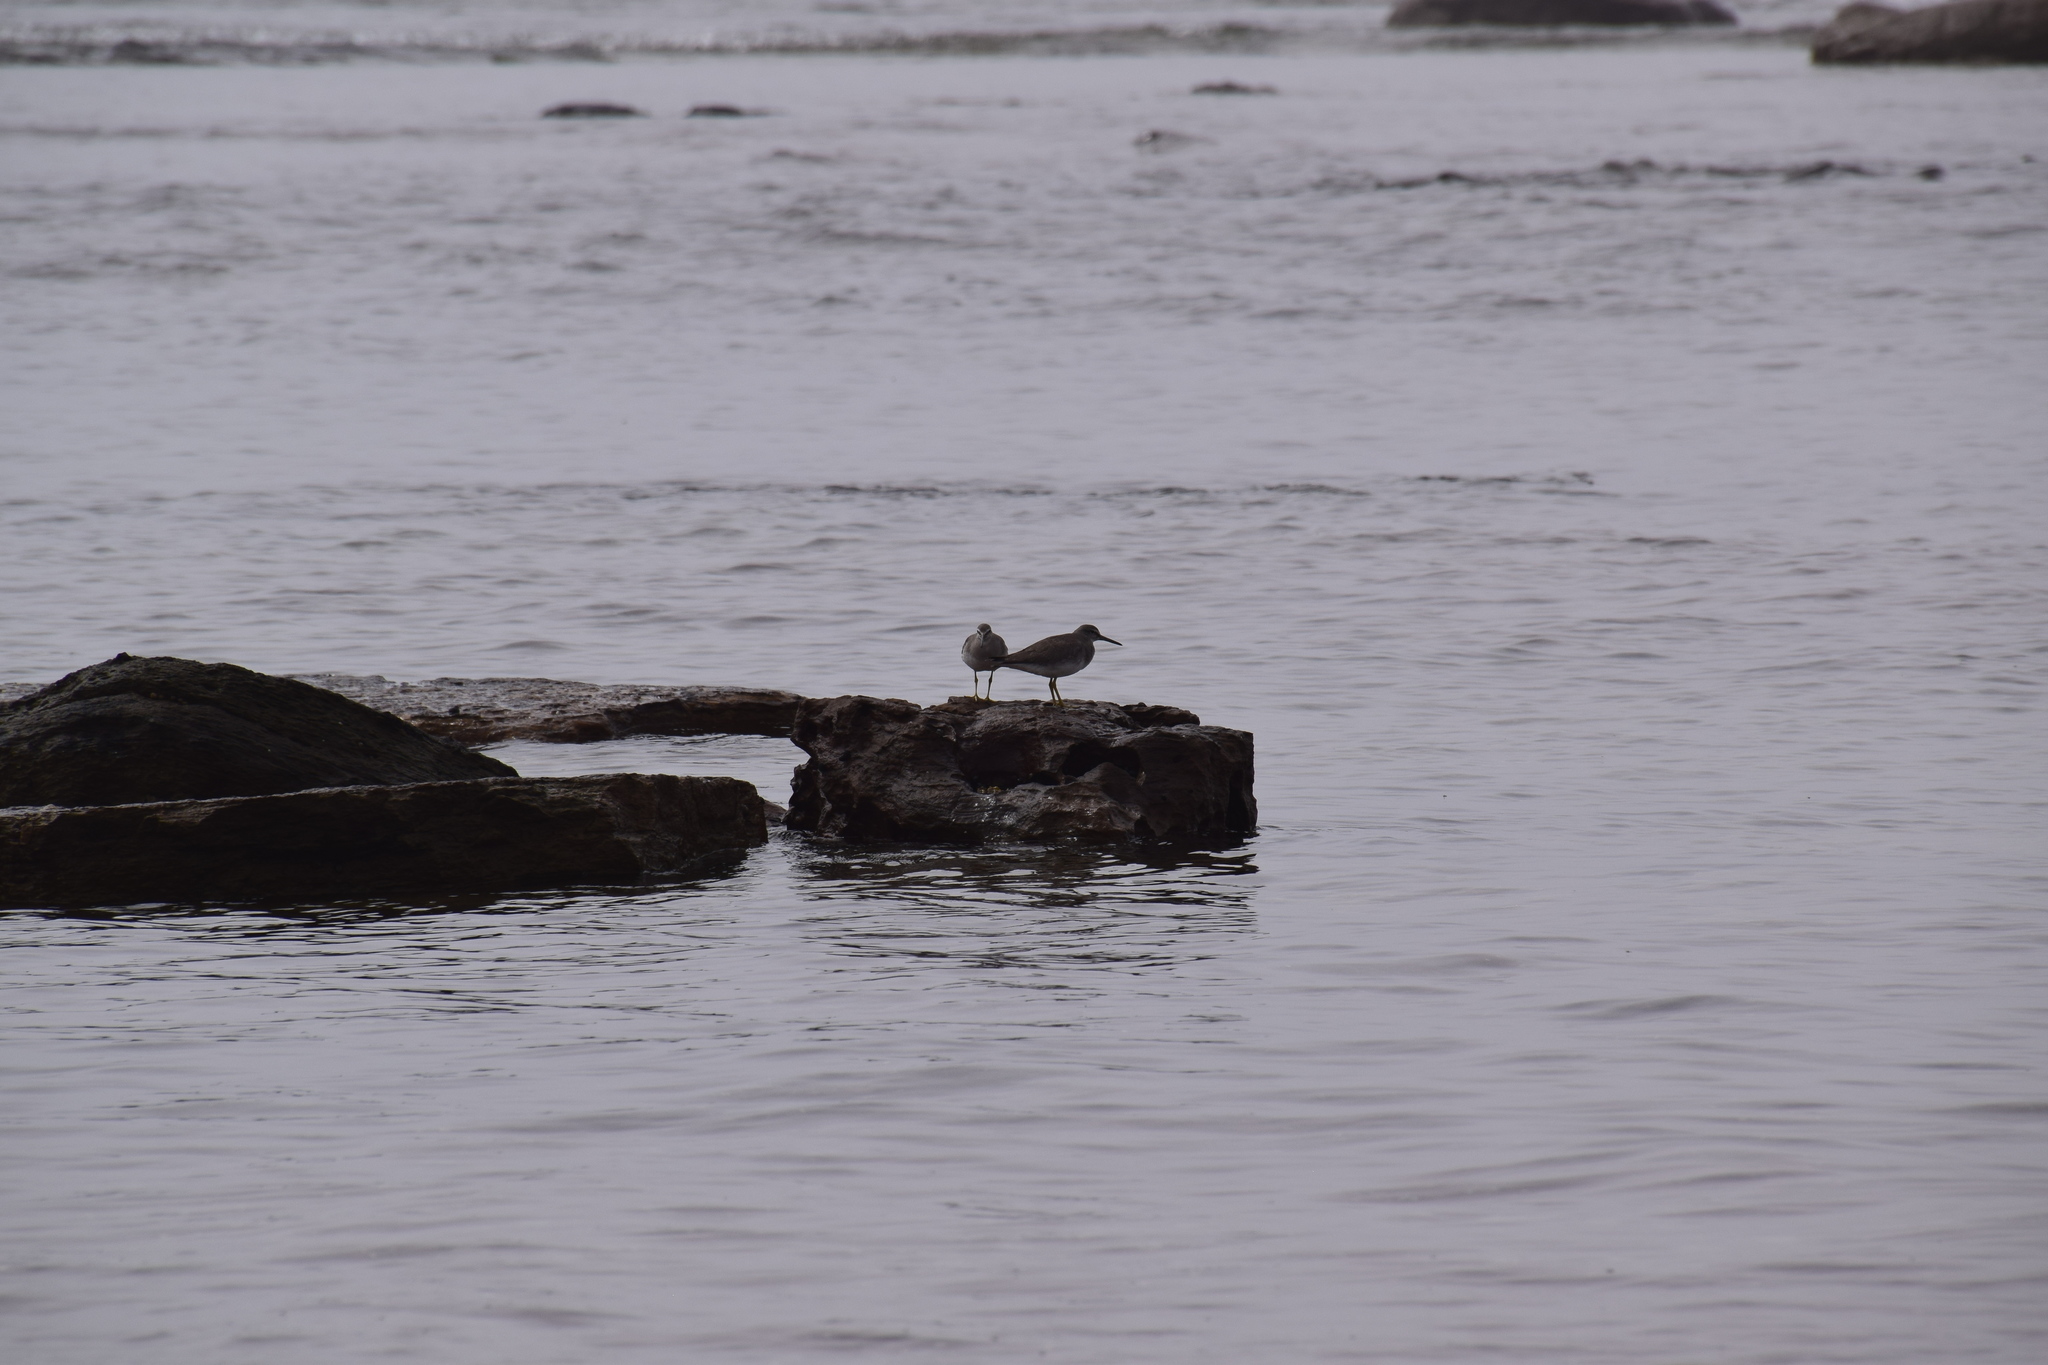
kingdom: Animalia
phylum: Chordata
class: Aves
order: Charadriiformes
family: Scolopacidae
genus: Tringa
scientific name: Tringa brevipes
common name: Grey-tailed tattler
